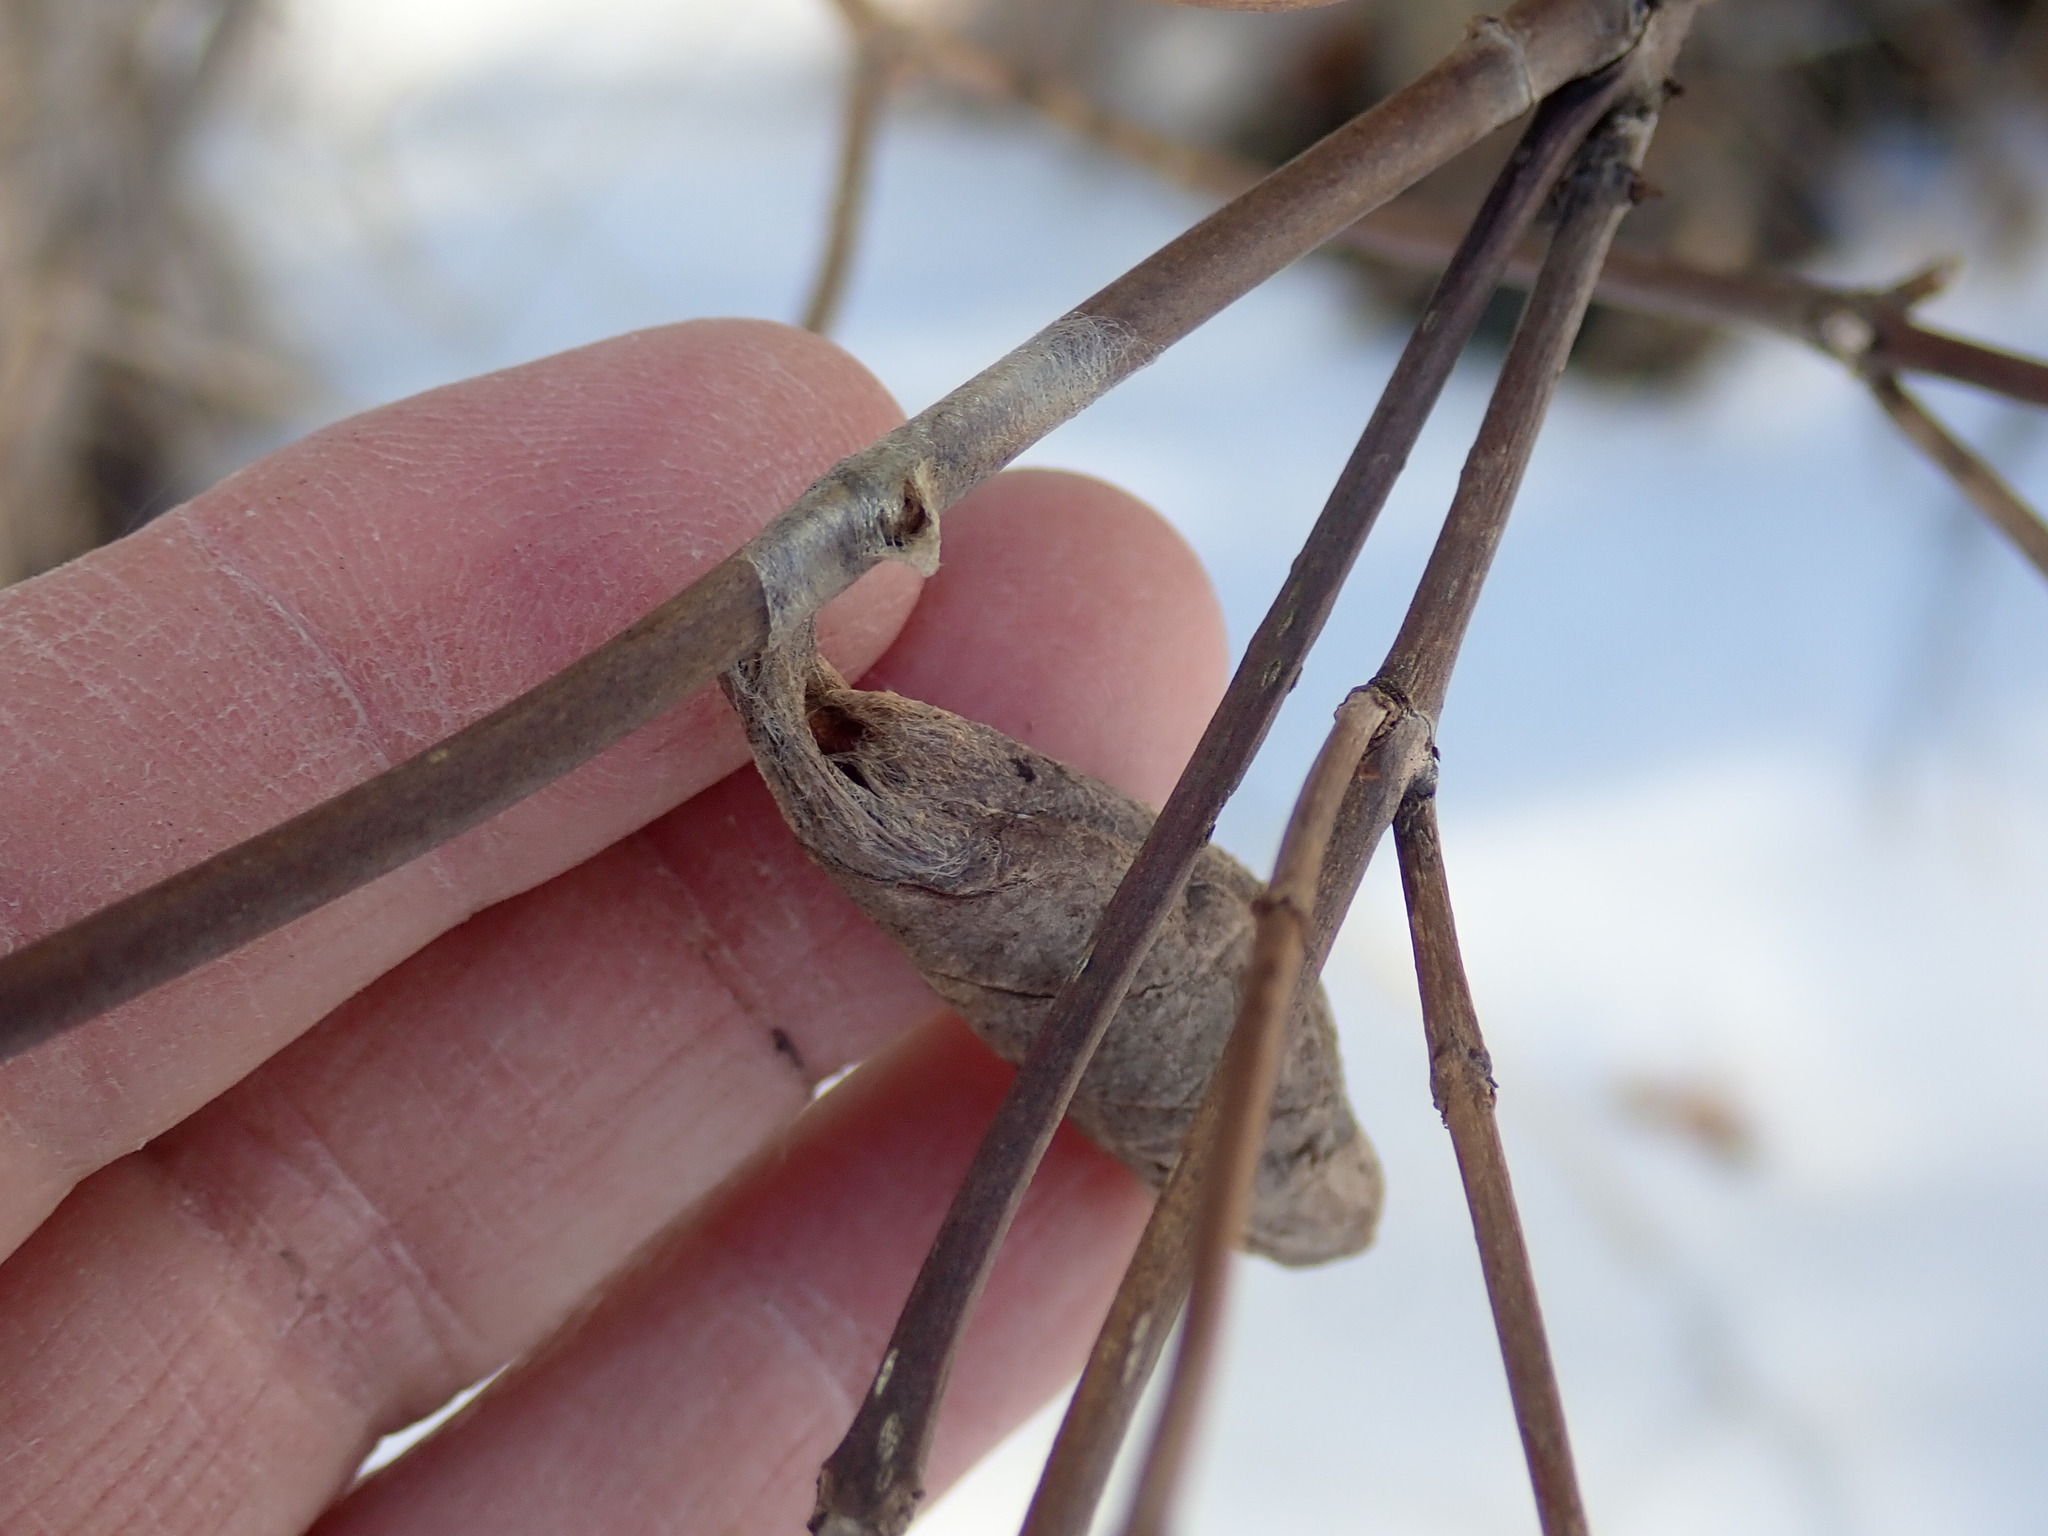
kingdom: Animalia
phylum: Arthropoda
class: Insecta
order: Lepidoptera
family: Saturniidae
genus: Callosamia
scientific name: Callosamia promethea
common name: Promethea silkmoth
